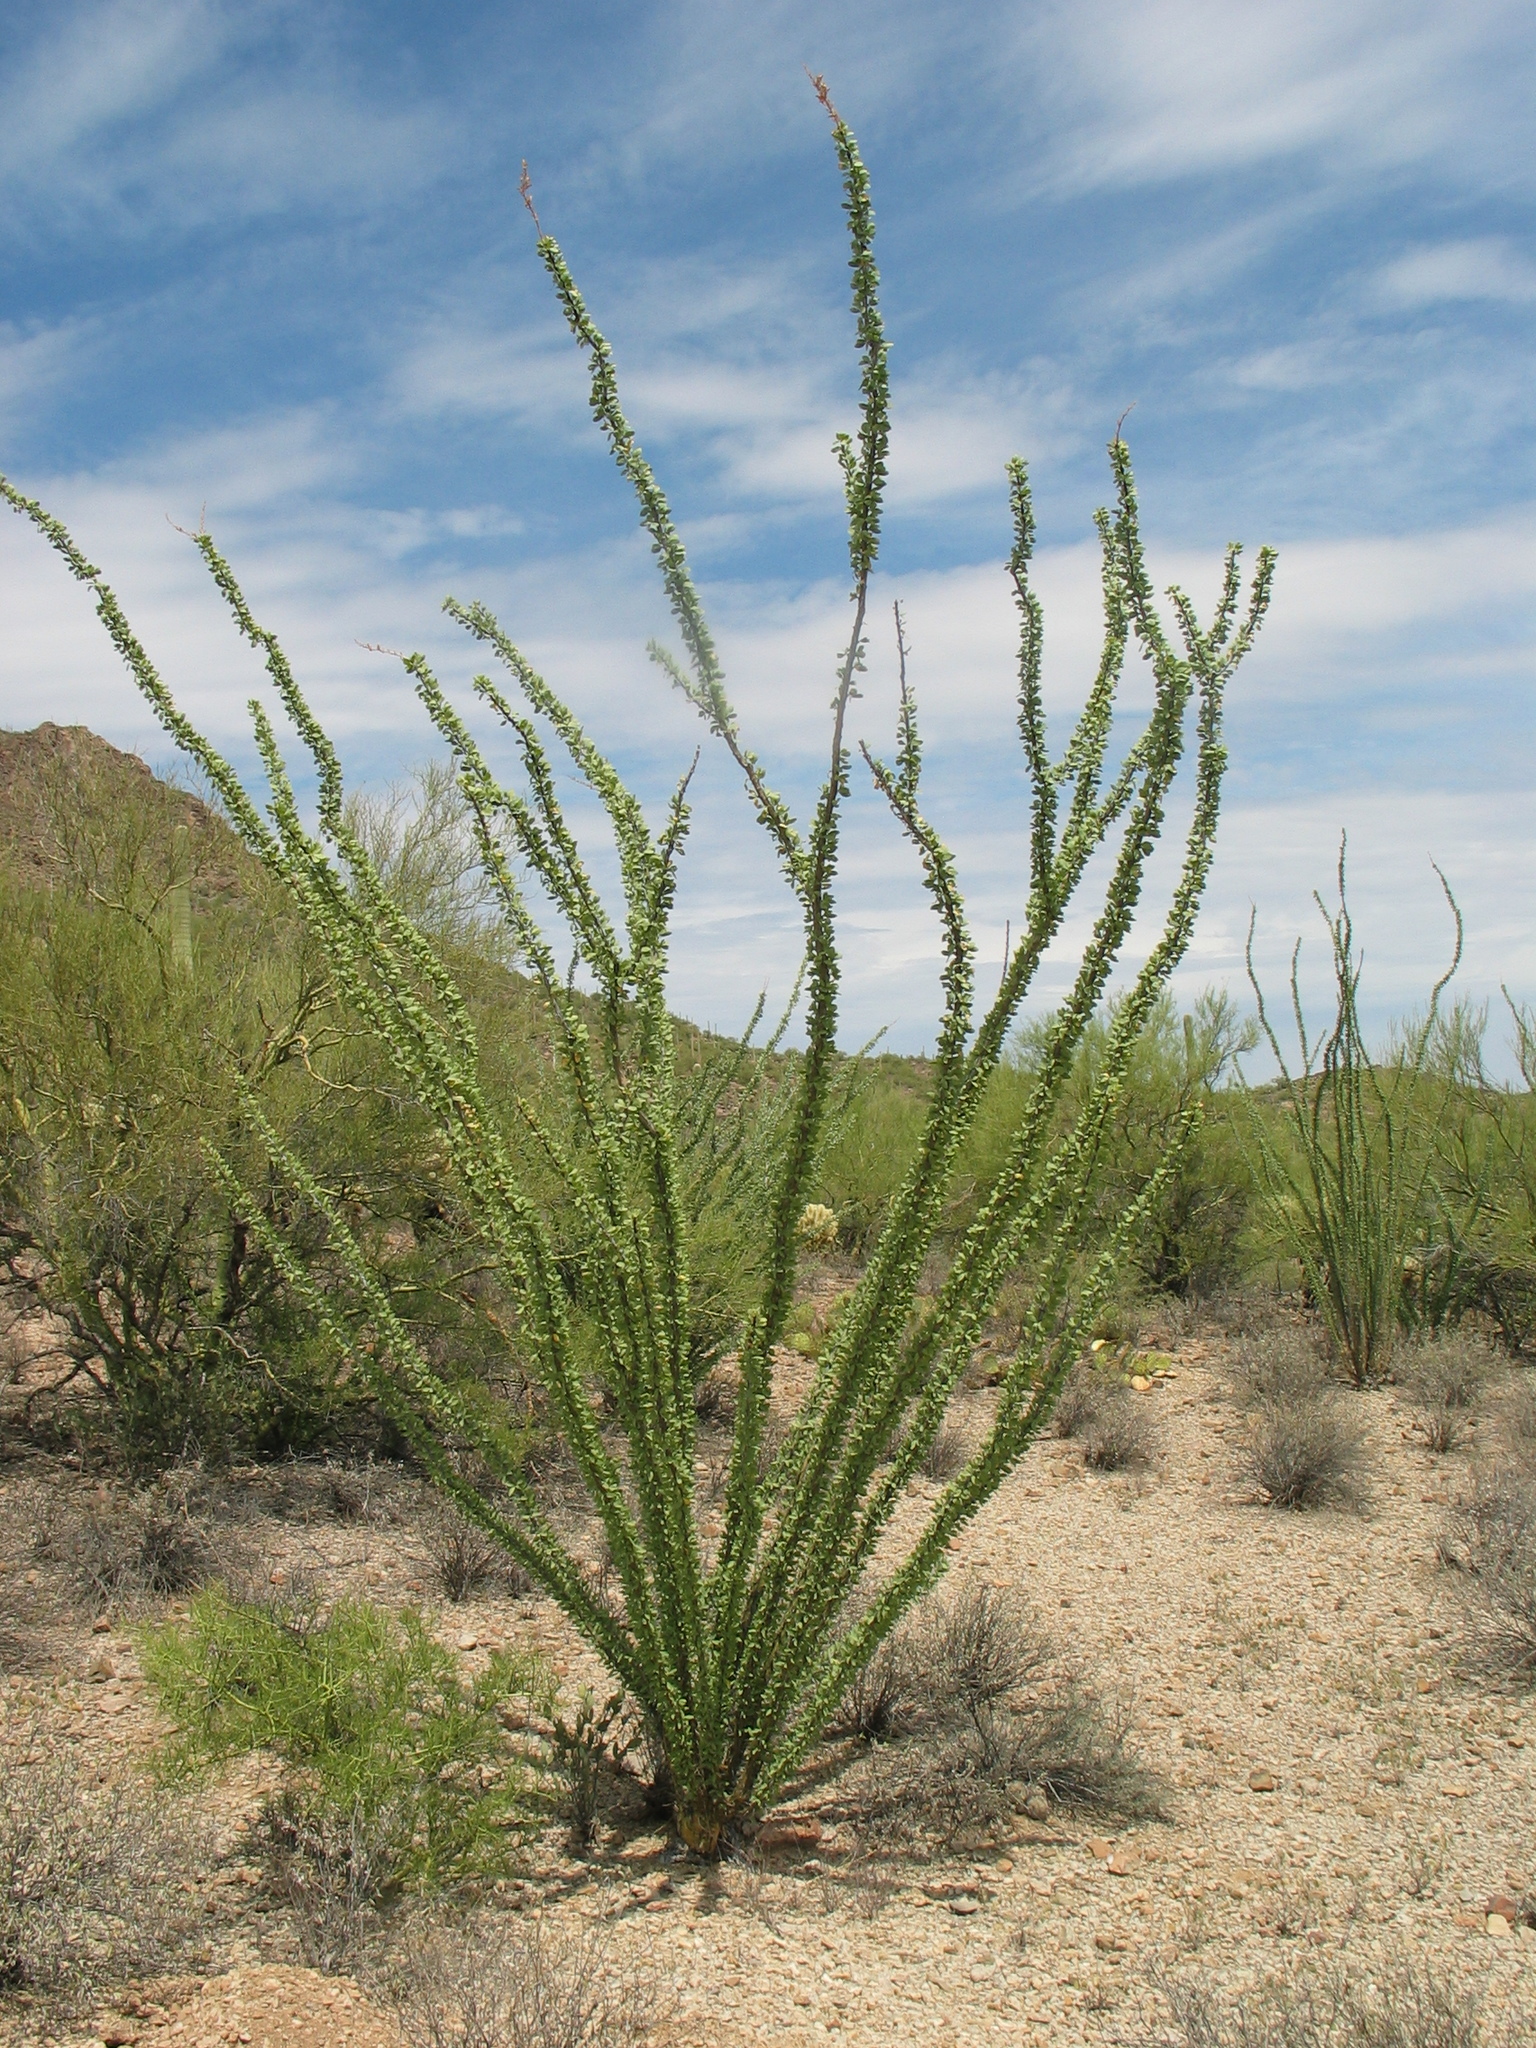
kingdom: Plantae
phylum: Tracheophyta
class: Magnoliopsida
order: Ericales
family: Fouquieriaceae
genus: Fouquieria
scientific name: Fouquieria splendens
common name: Vine-cactus
